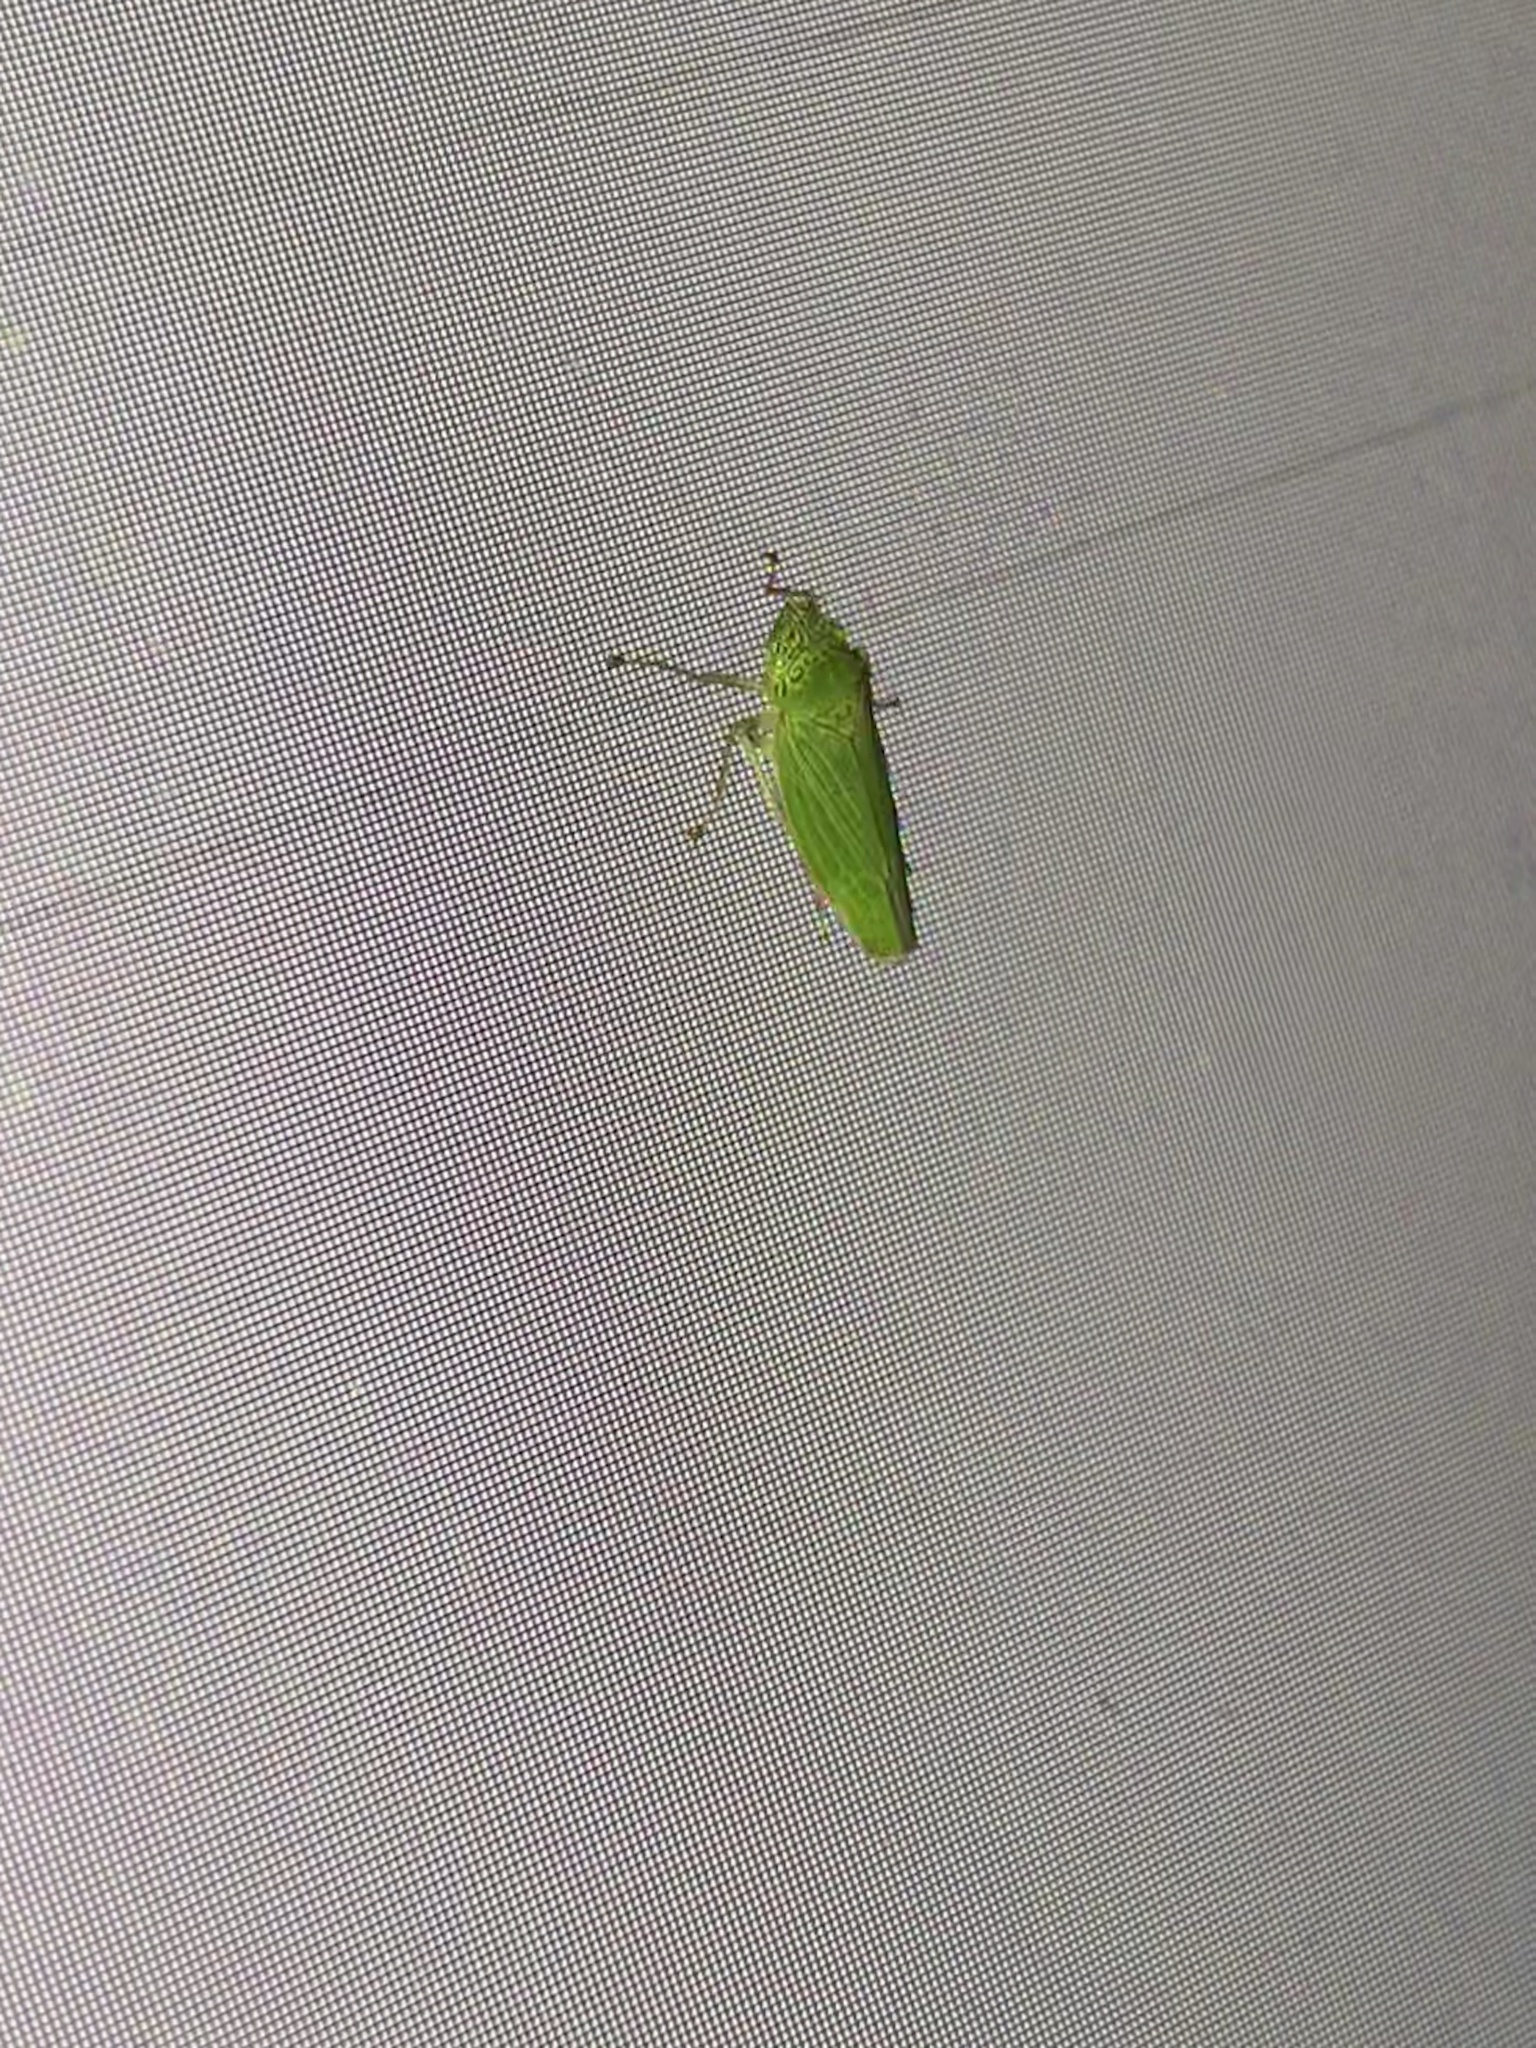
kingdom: Animalia
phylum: Arthropoda
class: Insecta
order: Hemiptera
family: Cicadellidae
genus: Draeculacephala
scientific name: Draeculacephala inscripta
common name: Leafhopper
